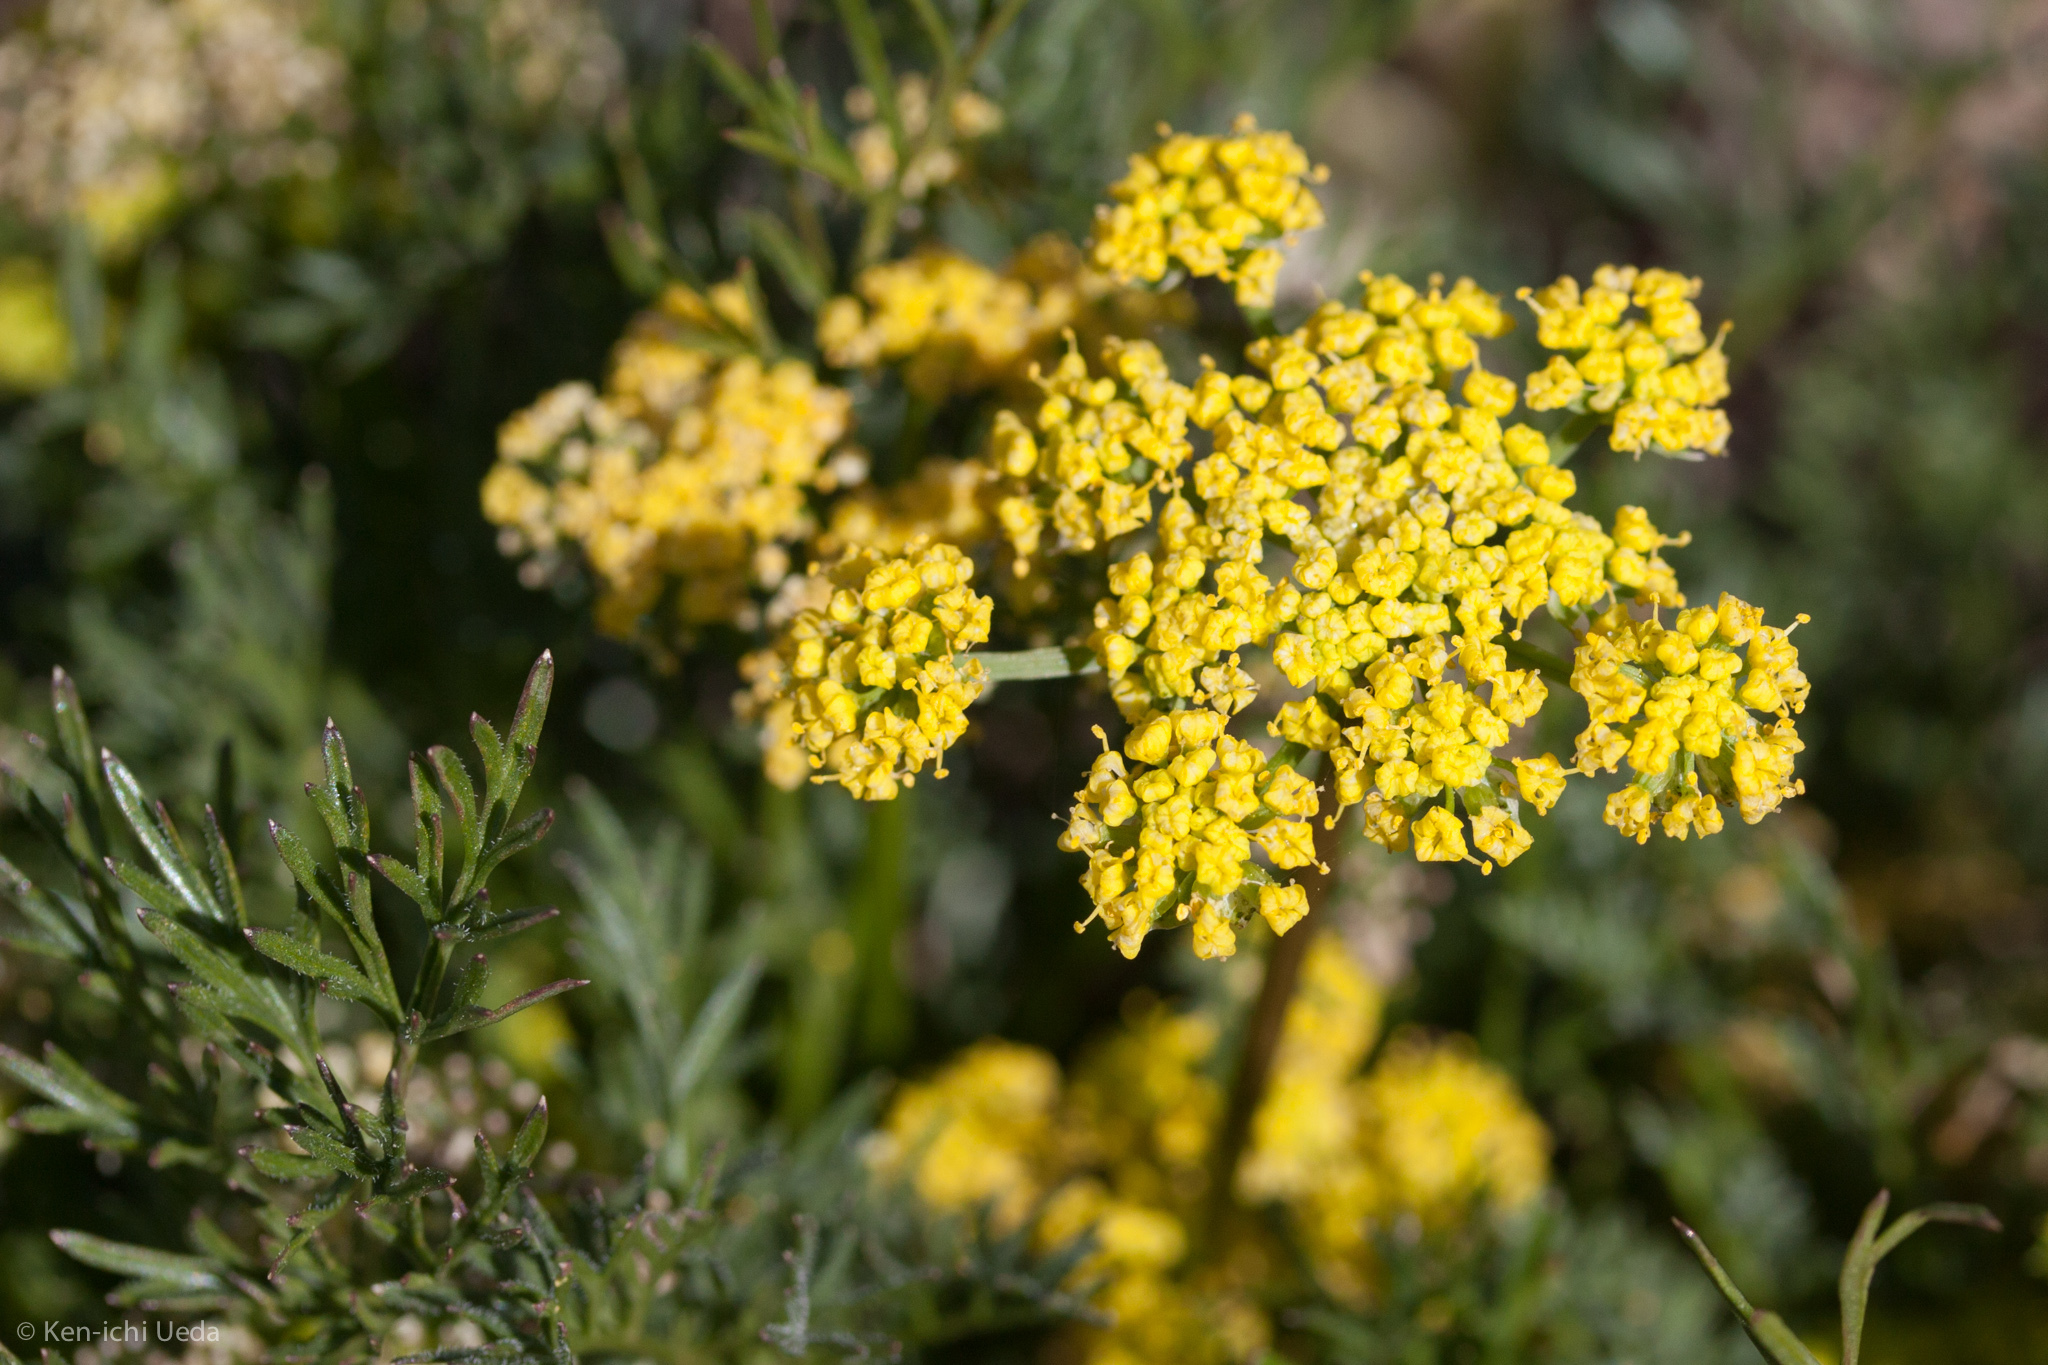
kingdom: Plantae
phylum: Tracheophyta
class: Magnoliopsida
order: Apiales
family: Apiaceae
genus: Lomatium
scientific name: Lomatium utriculatum
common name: Fine-leaf desert-parsley
